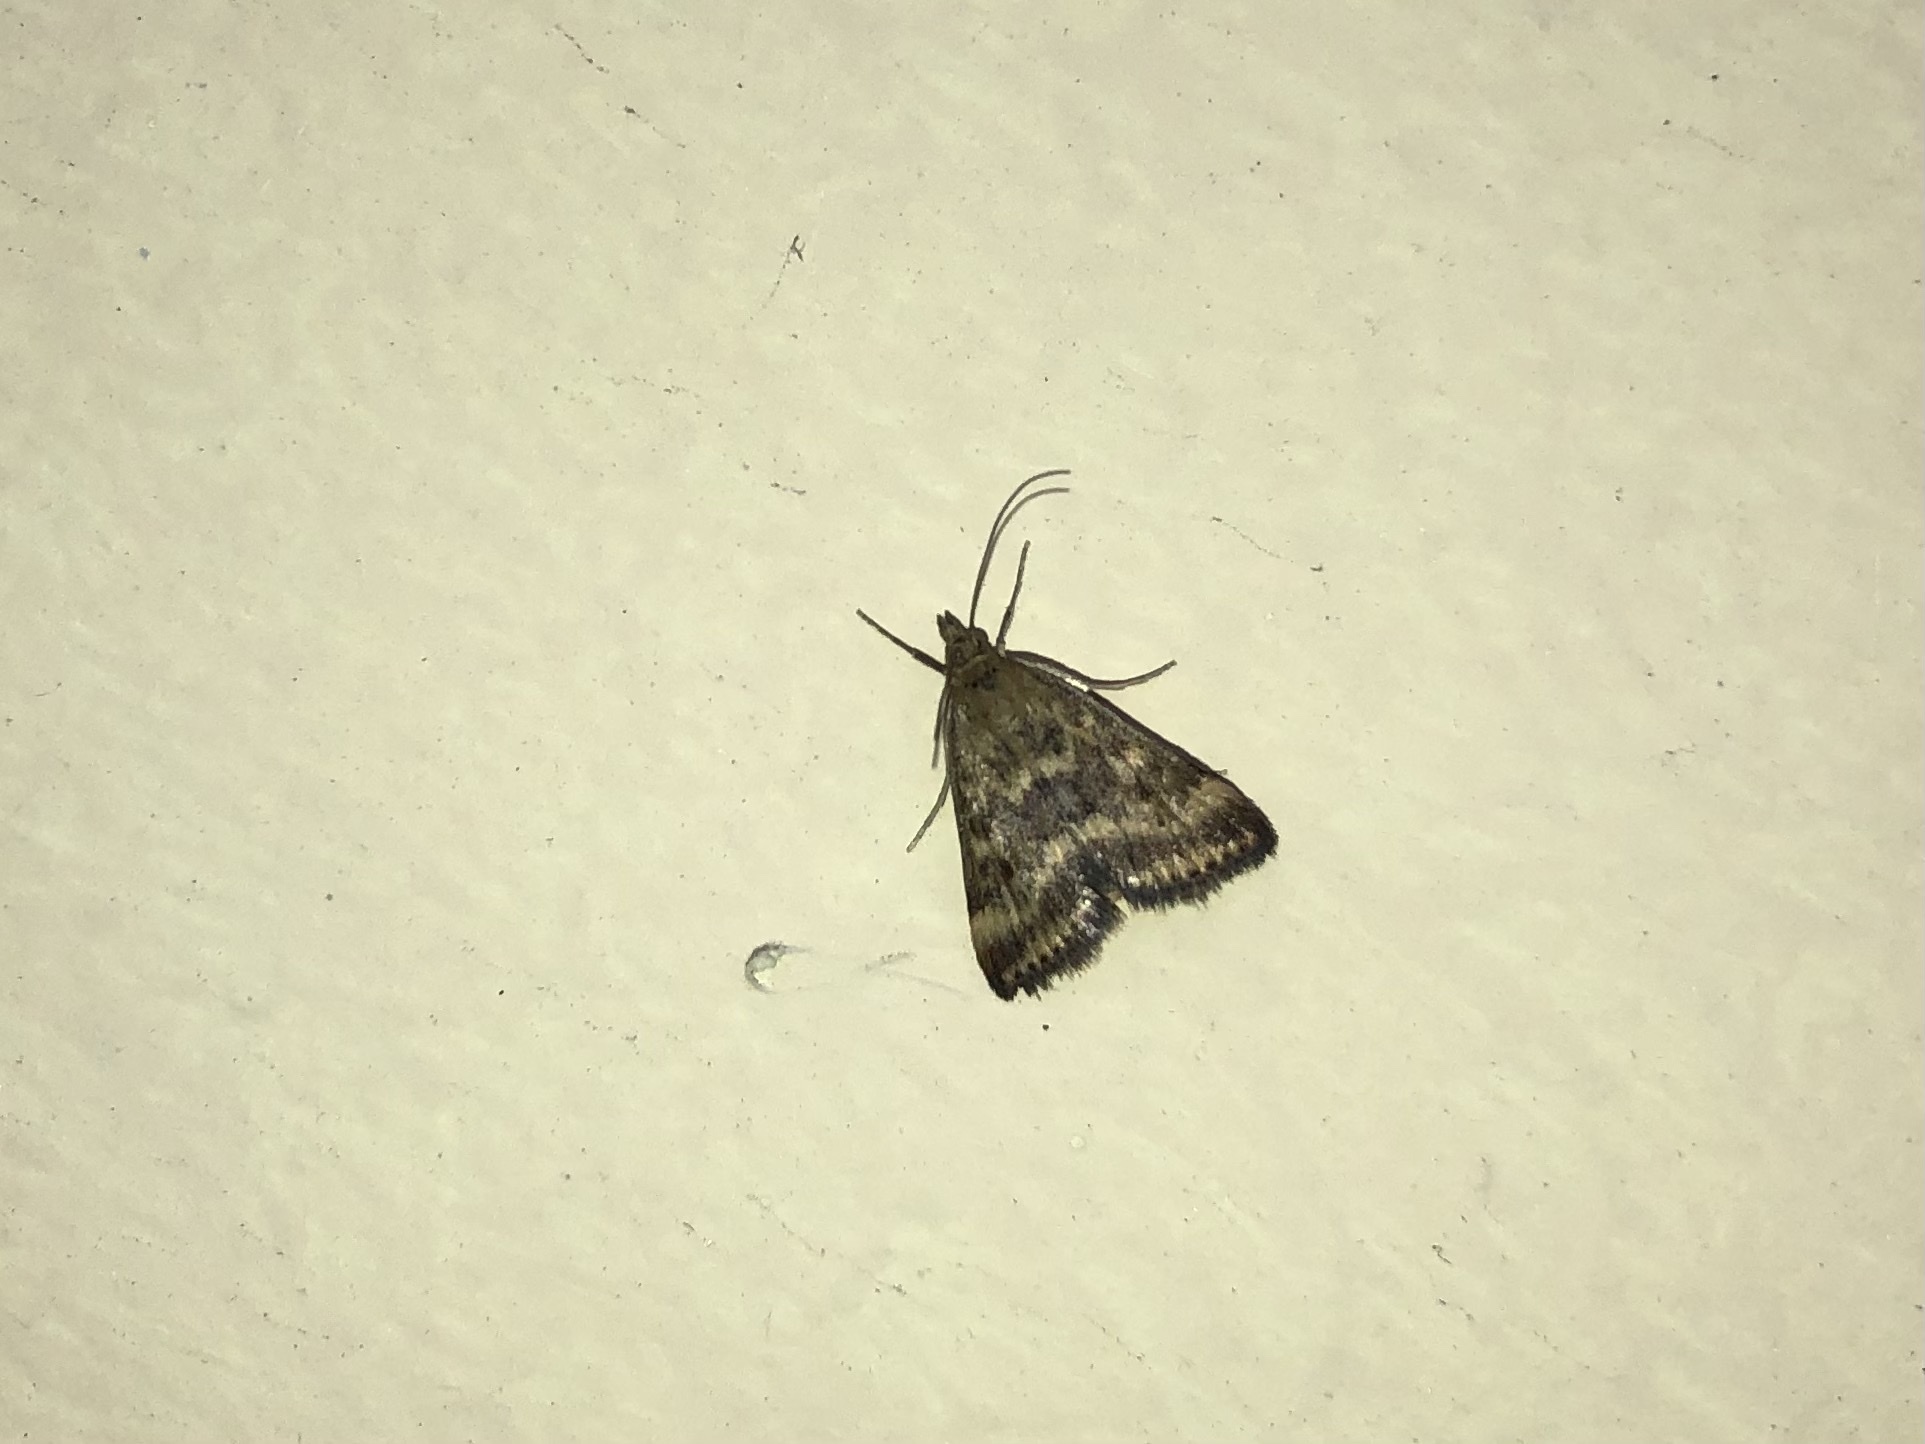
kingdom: Animalia
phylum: Arthropoda
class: Insecta
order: Lepidoptera
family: Crambidae
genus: Pyrausta
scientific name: Pyrausta despicata
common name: Straw-barred pearl
